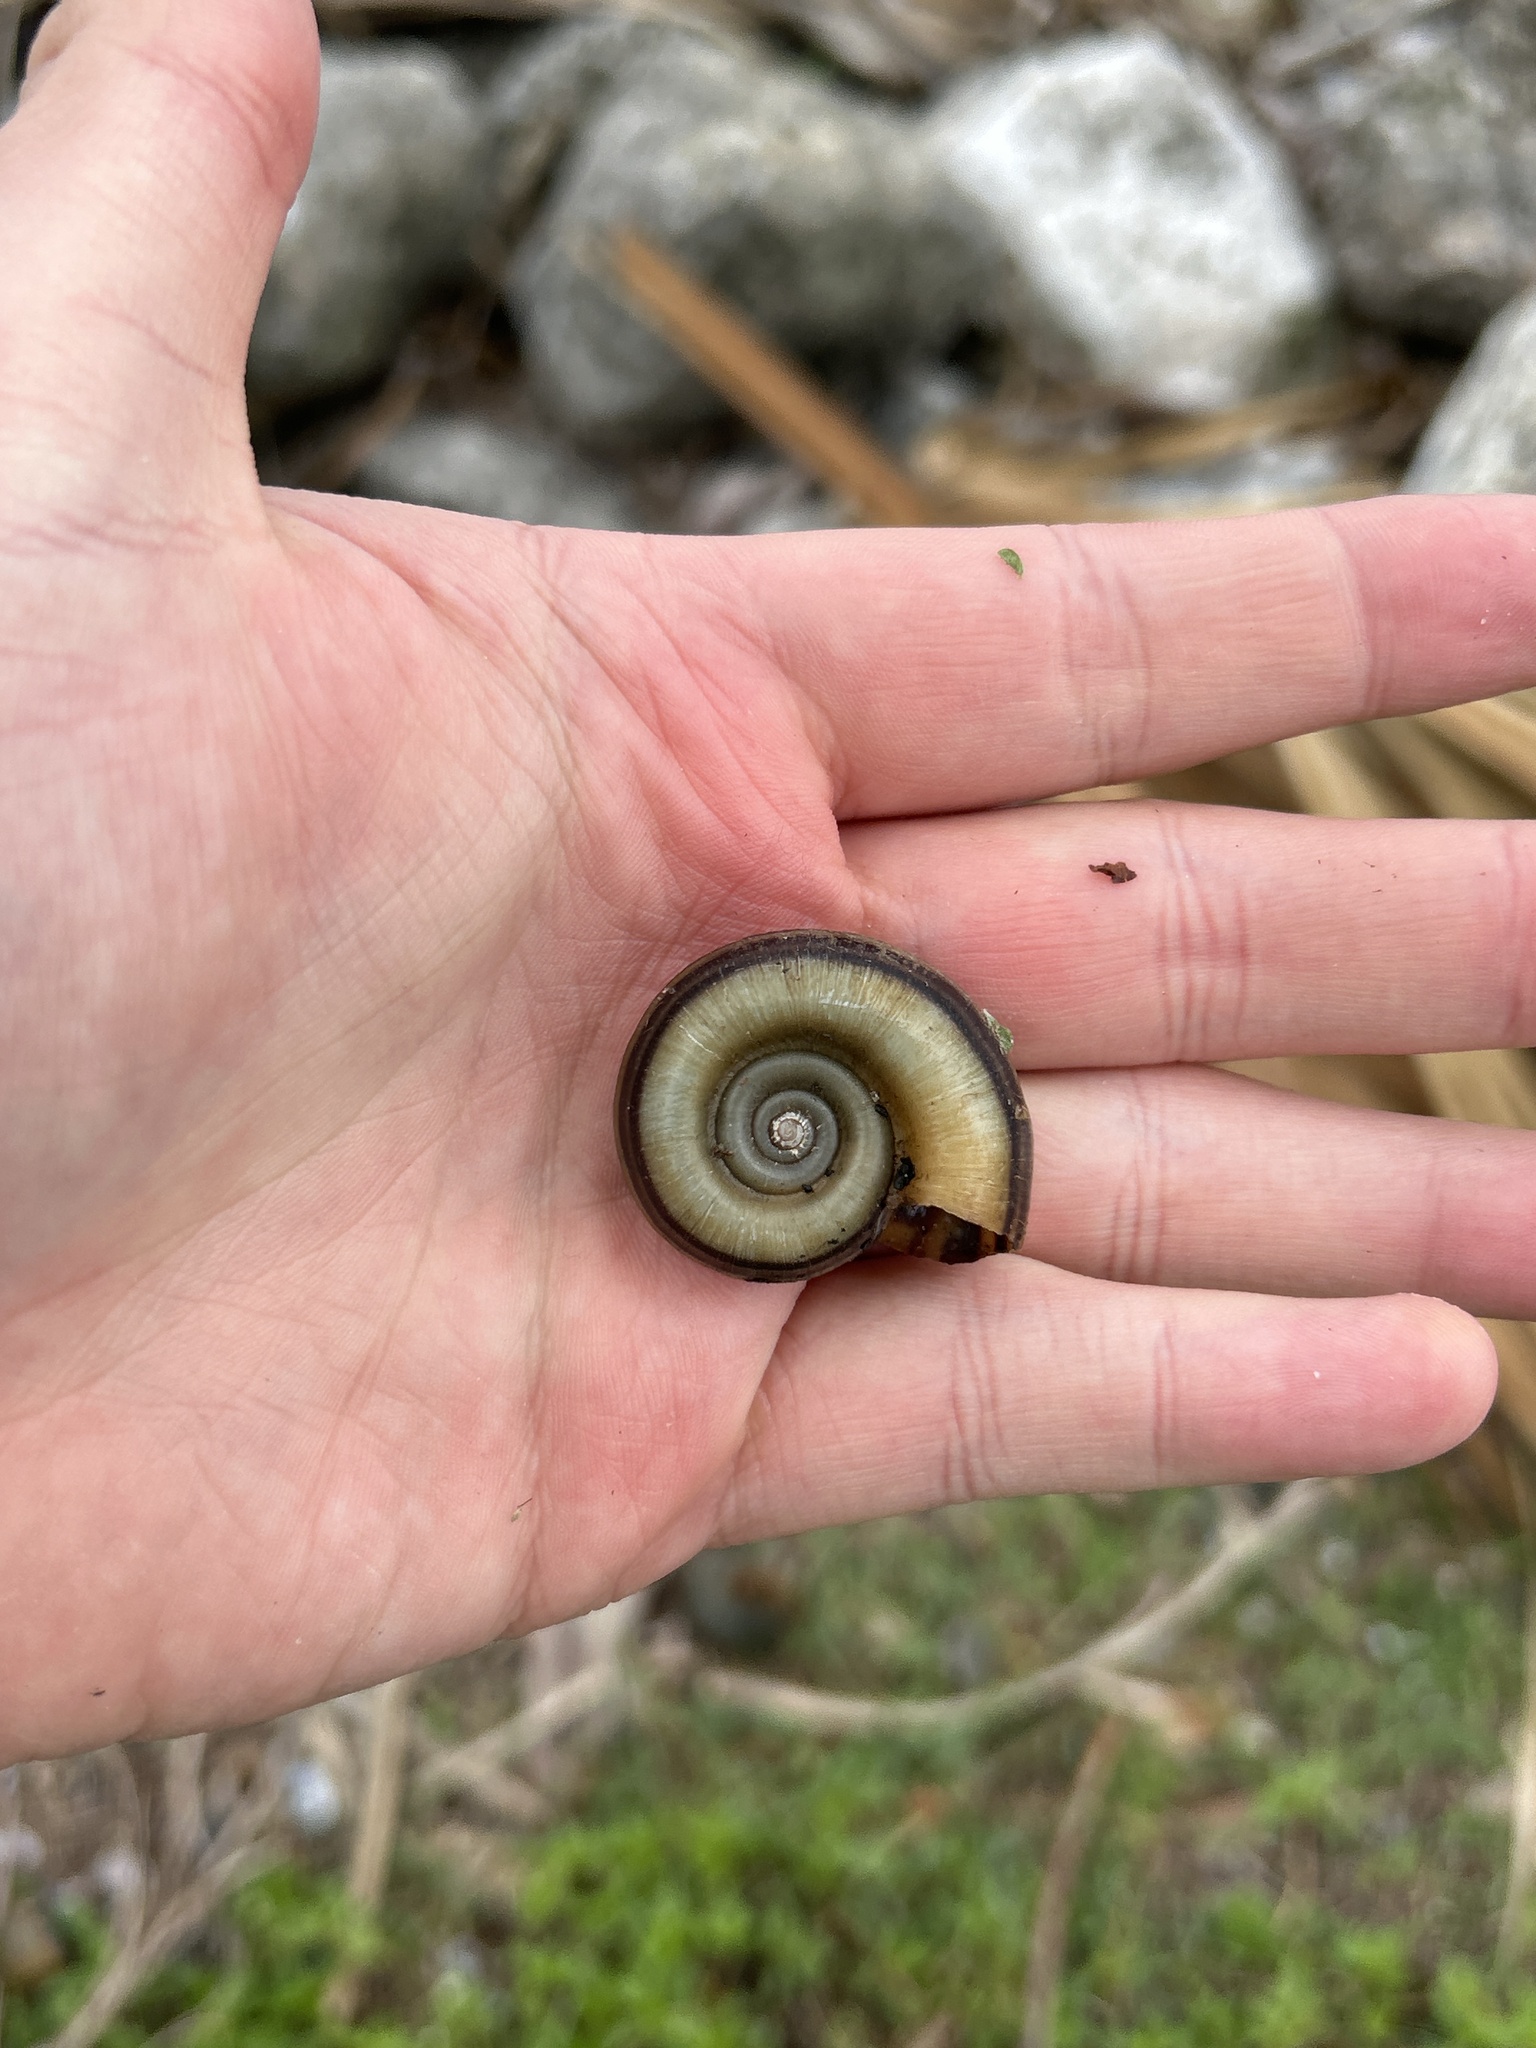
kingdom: Animalia
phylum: Mollusca
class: Gastropoda
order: Architaenioglossa
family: Ampullariidae
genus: Marisa
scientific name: Marisa cornuarietis
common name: Giant ramshorn snail
